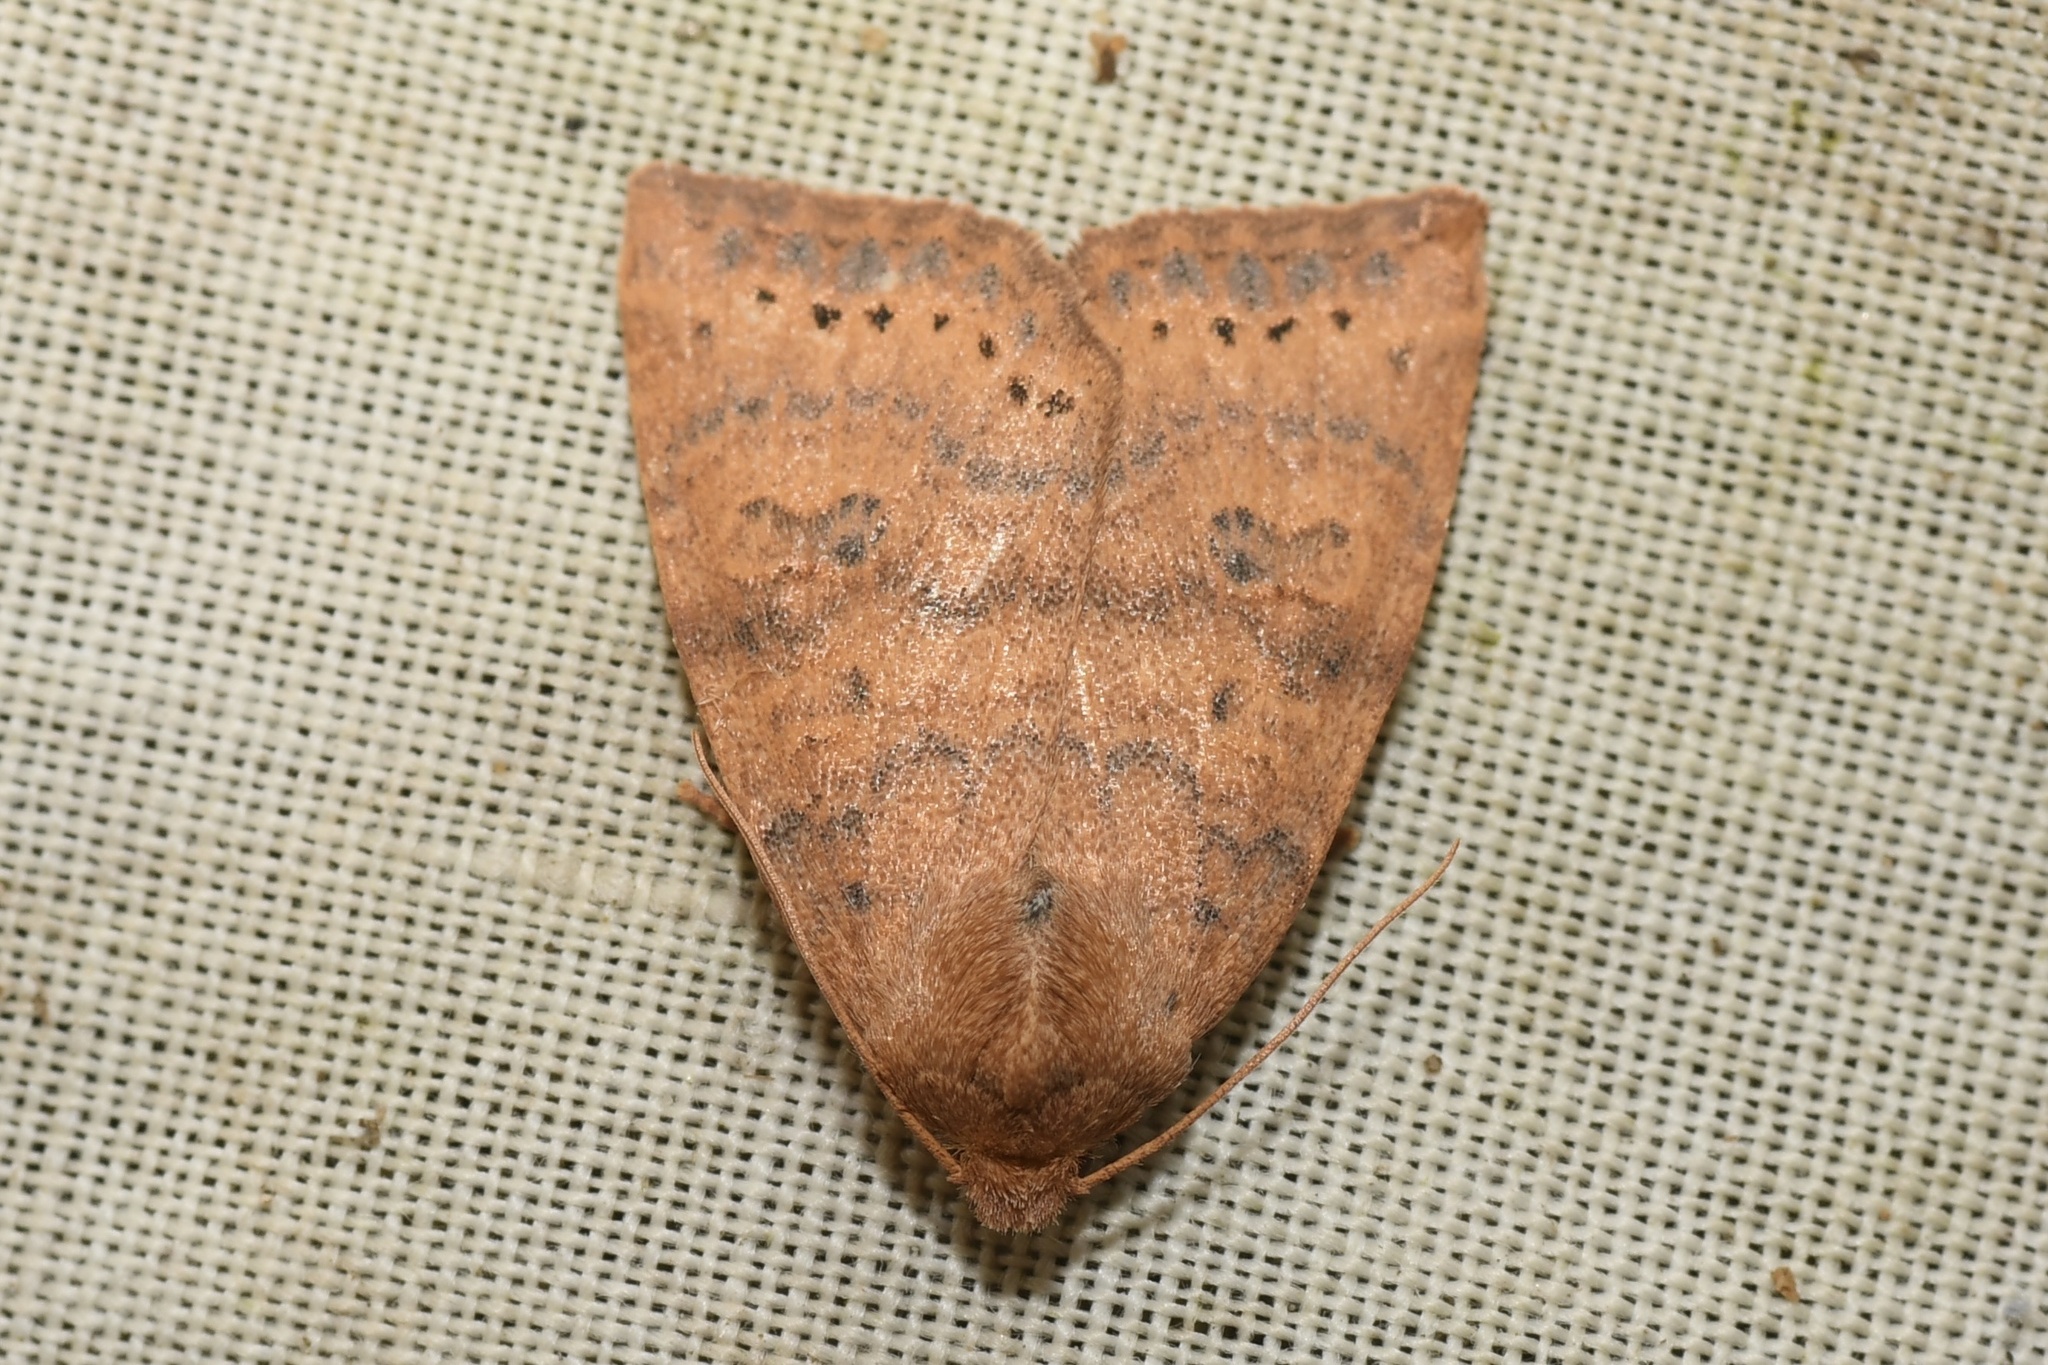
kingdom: Animalia
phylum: Arthropoda
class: Insecta
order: Lepidoptera
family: Noctuidae
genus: Anathix
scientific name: Anathix ralla
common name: Dotted sallow
